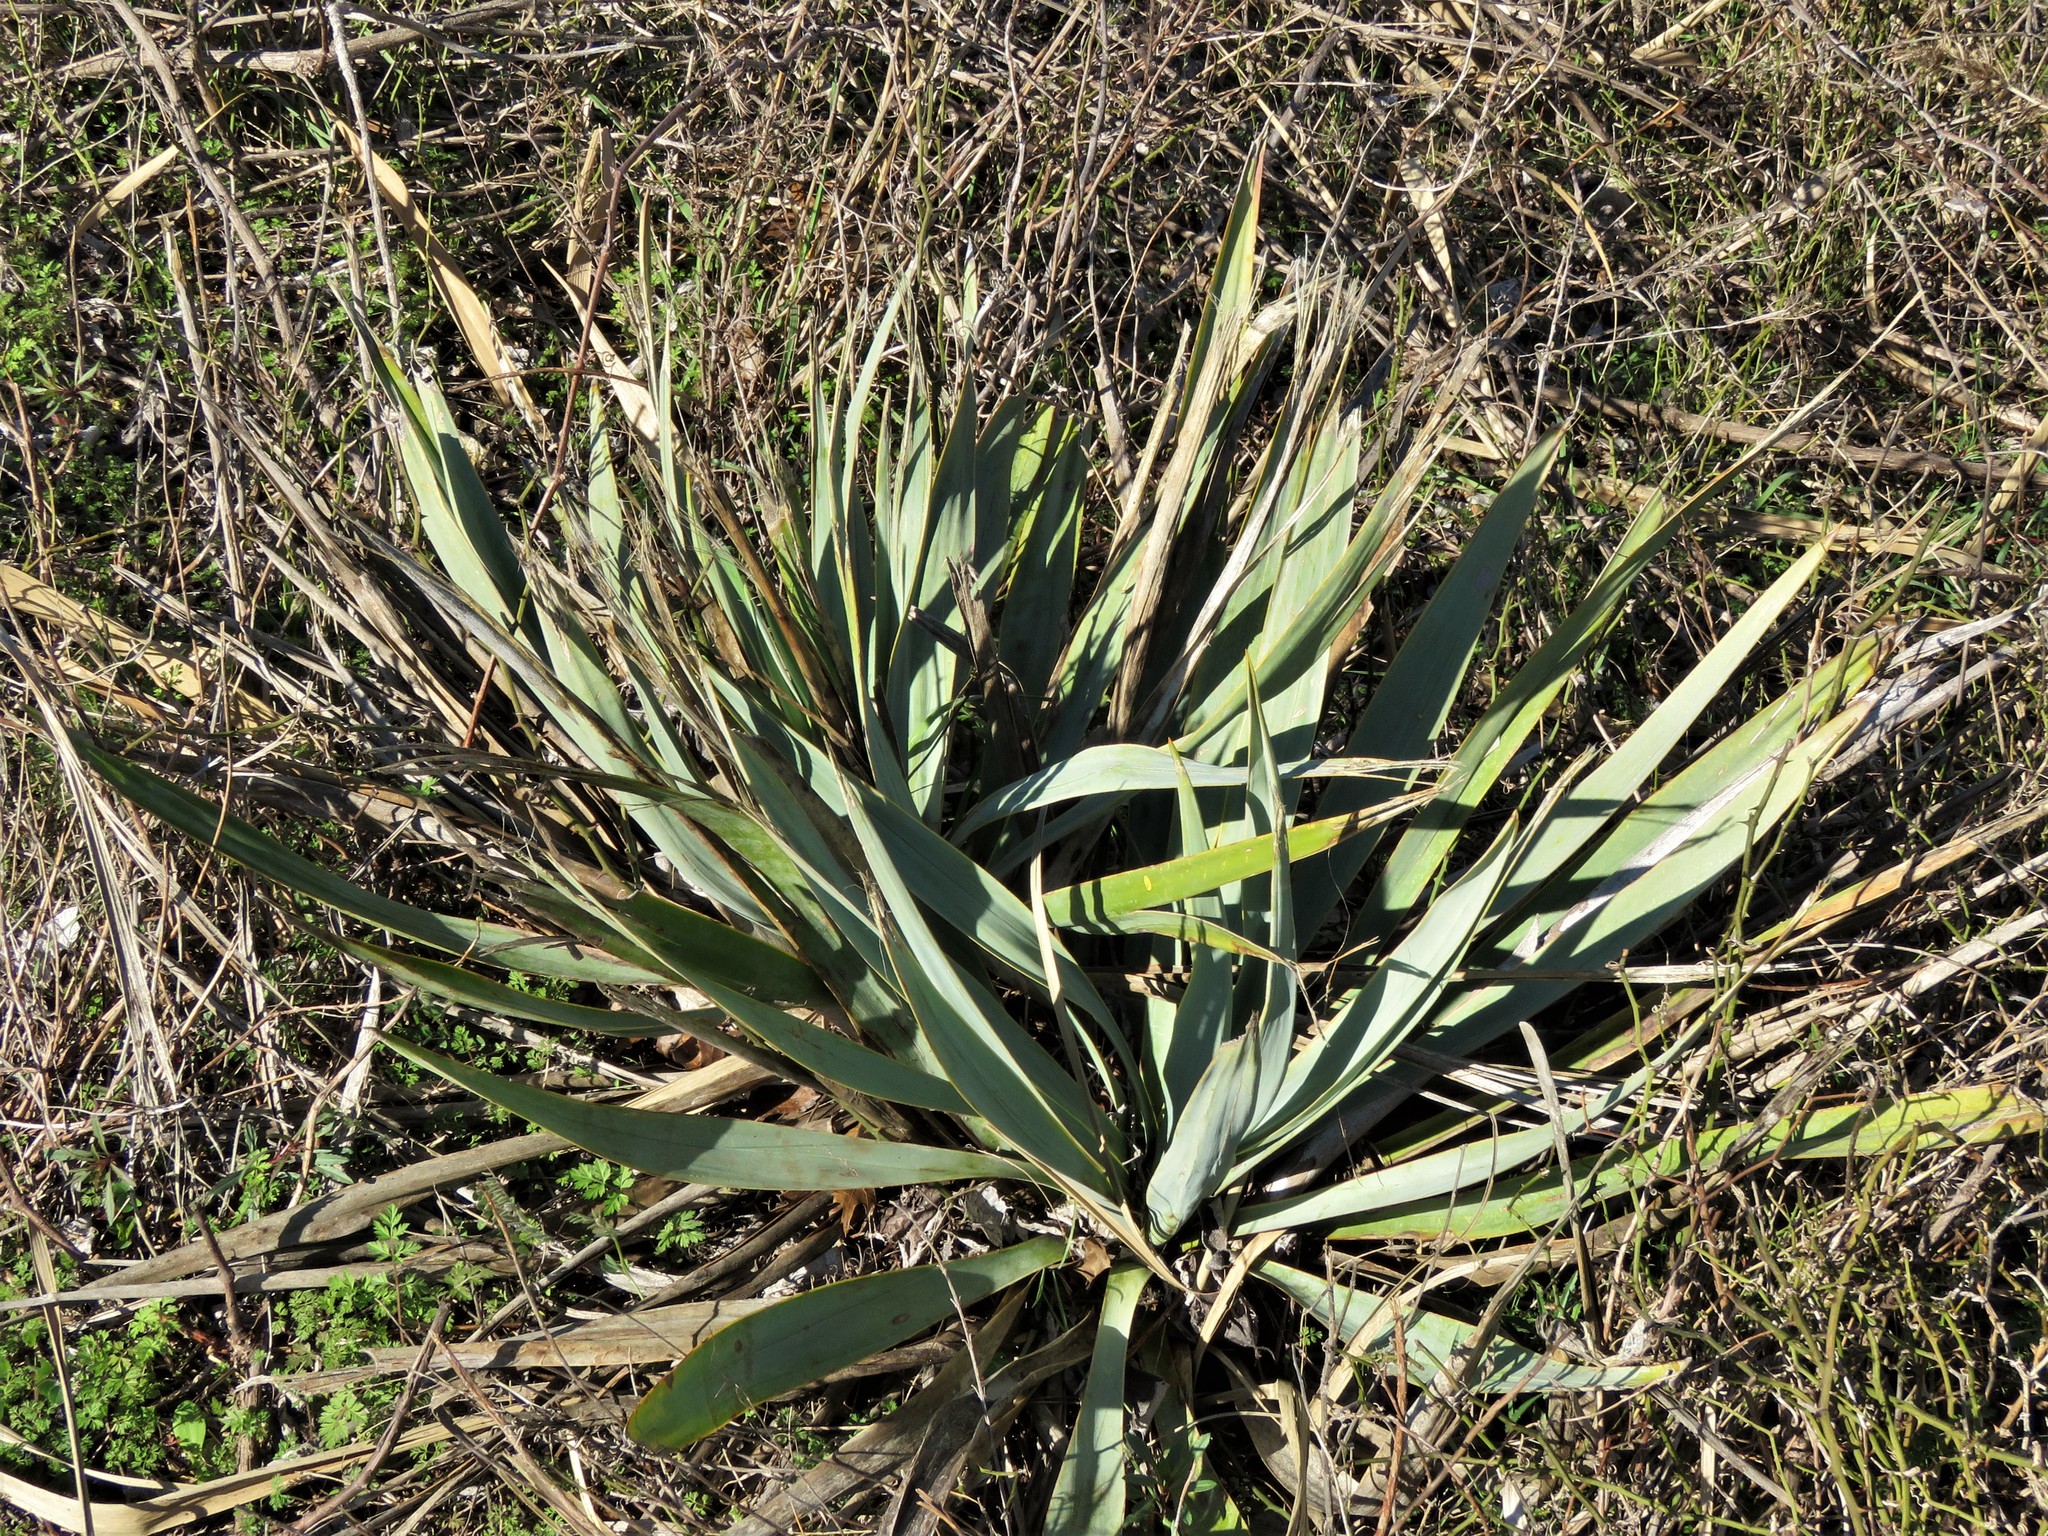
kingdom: Plantae
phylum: Tracheophyta
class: Liliopsida
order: Asparagales
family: Asparagaceae
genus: Yucca
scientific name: Yucca pallida
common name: Pale leaf yucca
